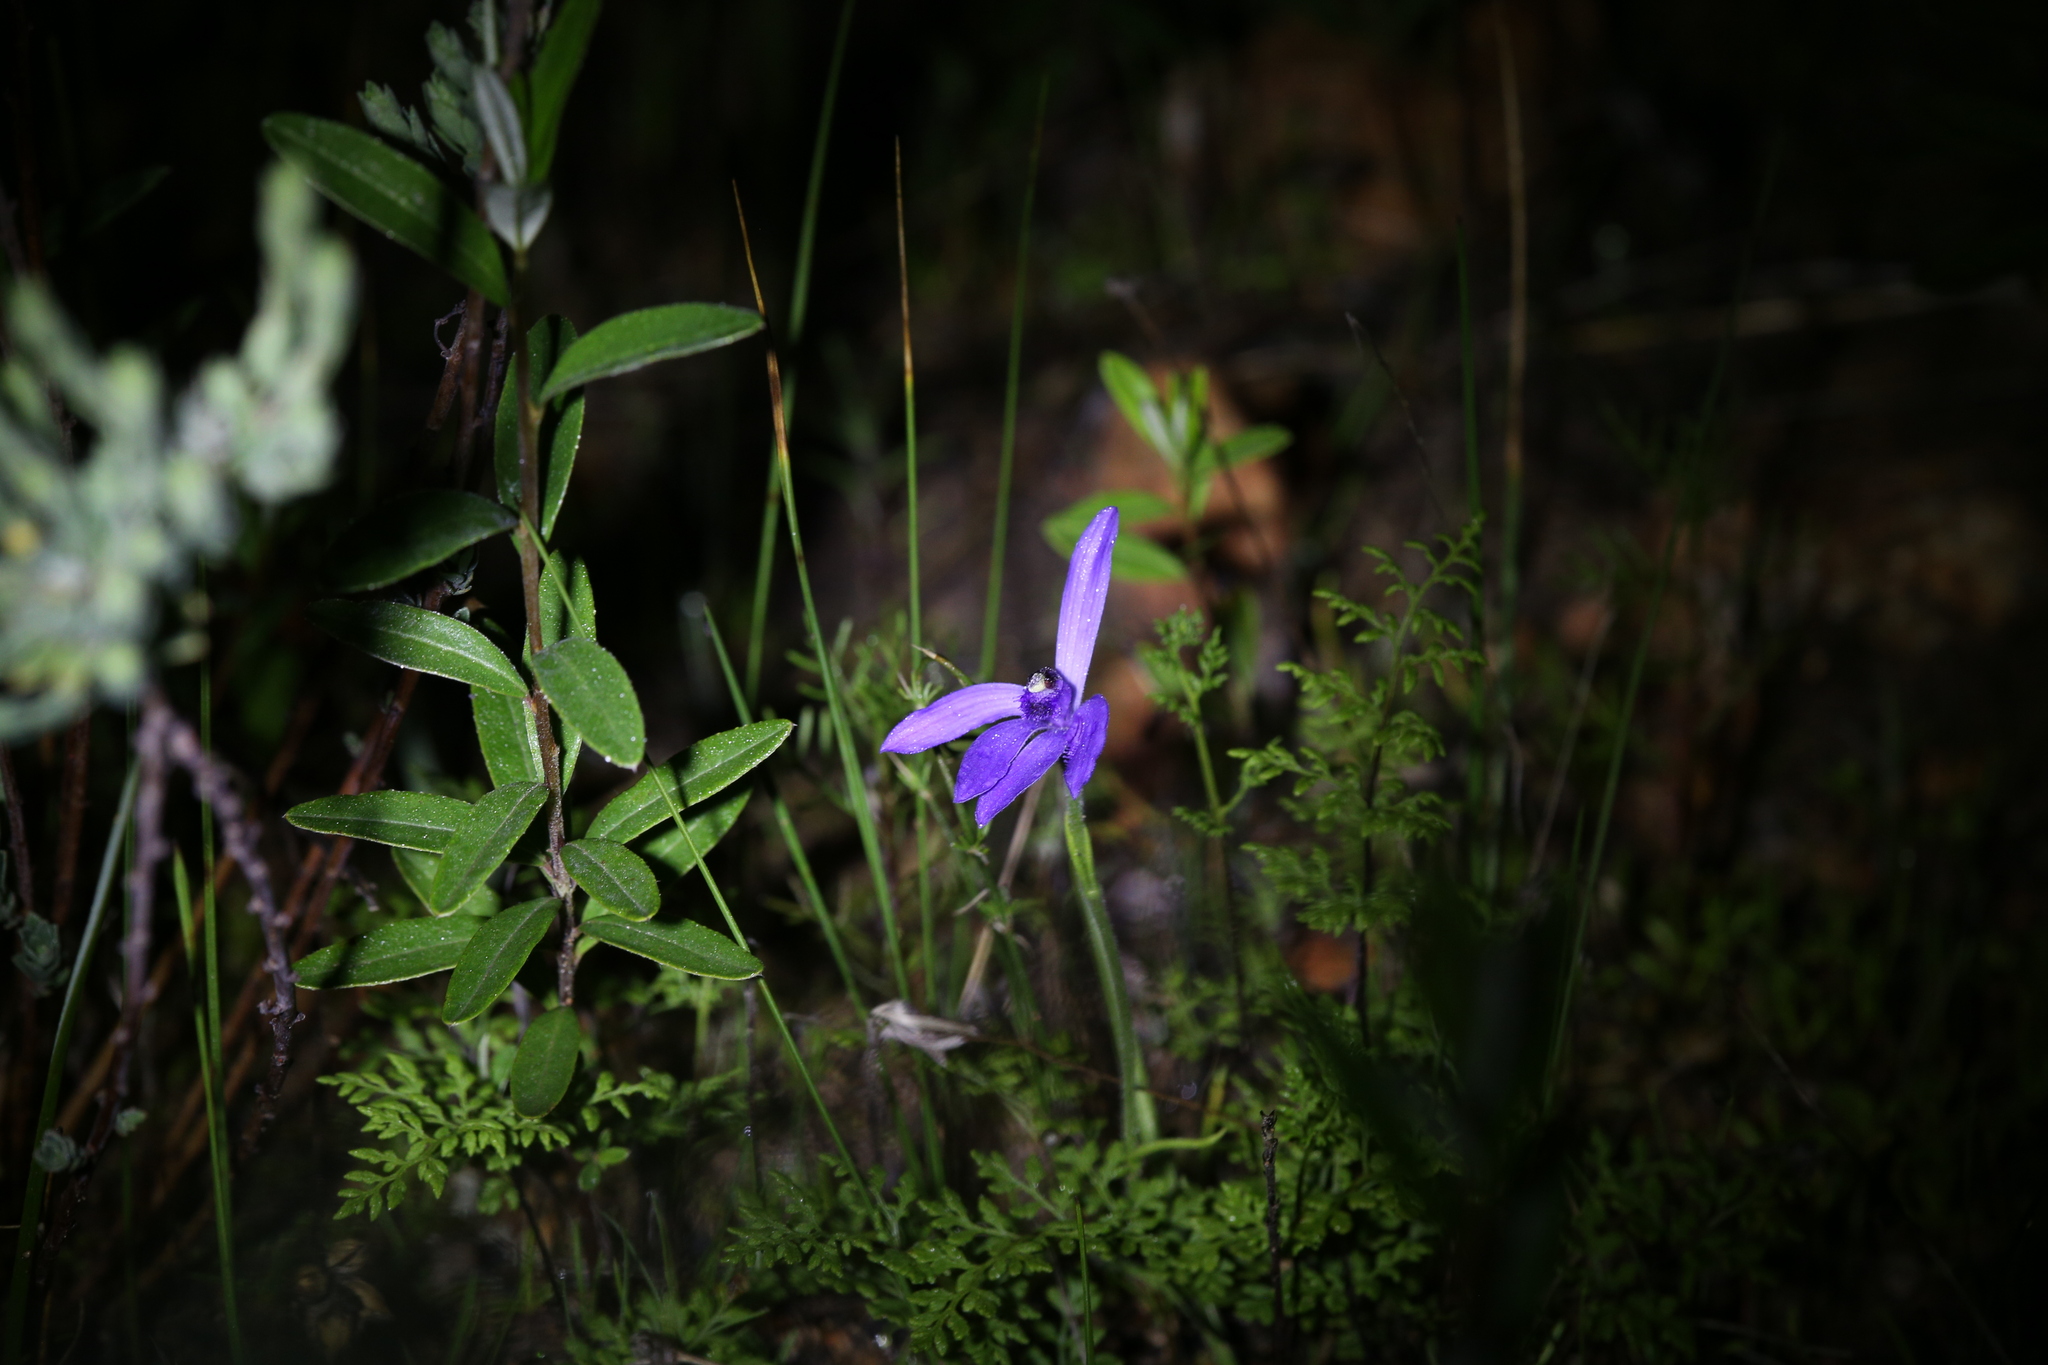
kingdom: Plantae
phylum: Tracheophyta
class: Liliopsida
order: Asparagales
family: Orchidaceae
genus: Pheladenia
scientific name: Pheladenia deformis
